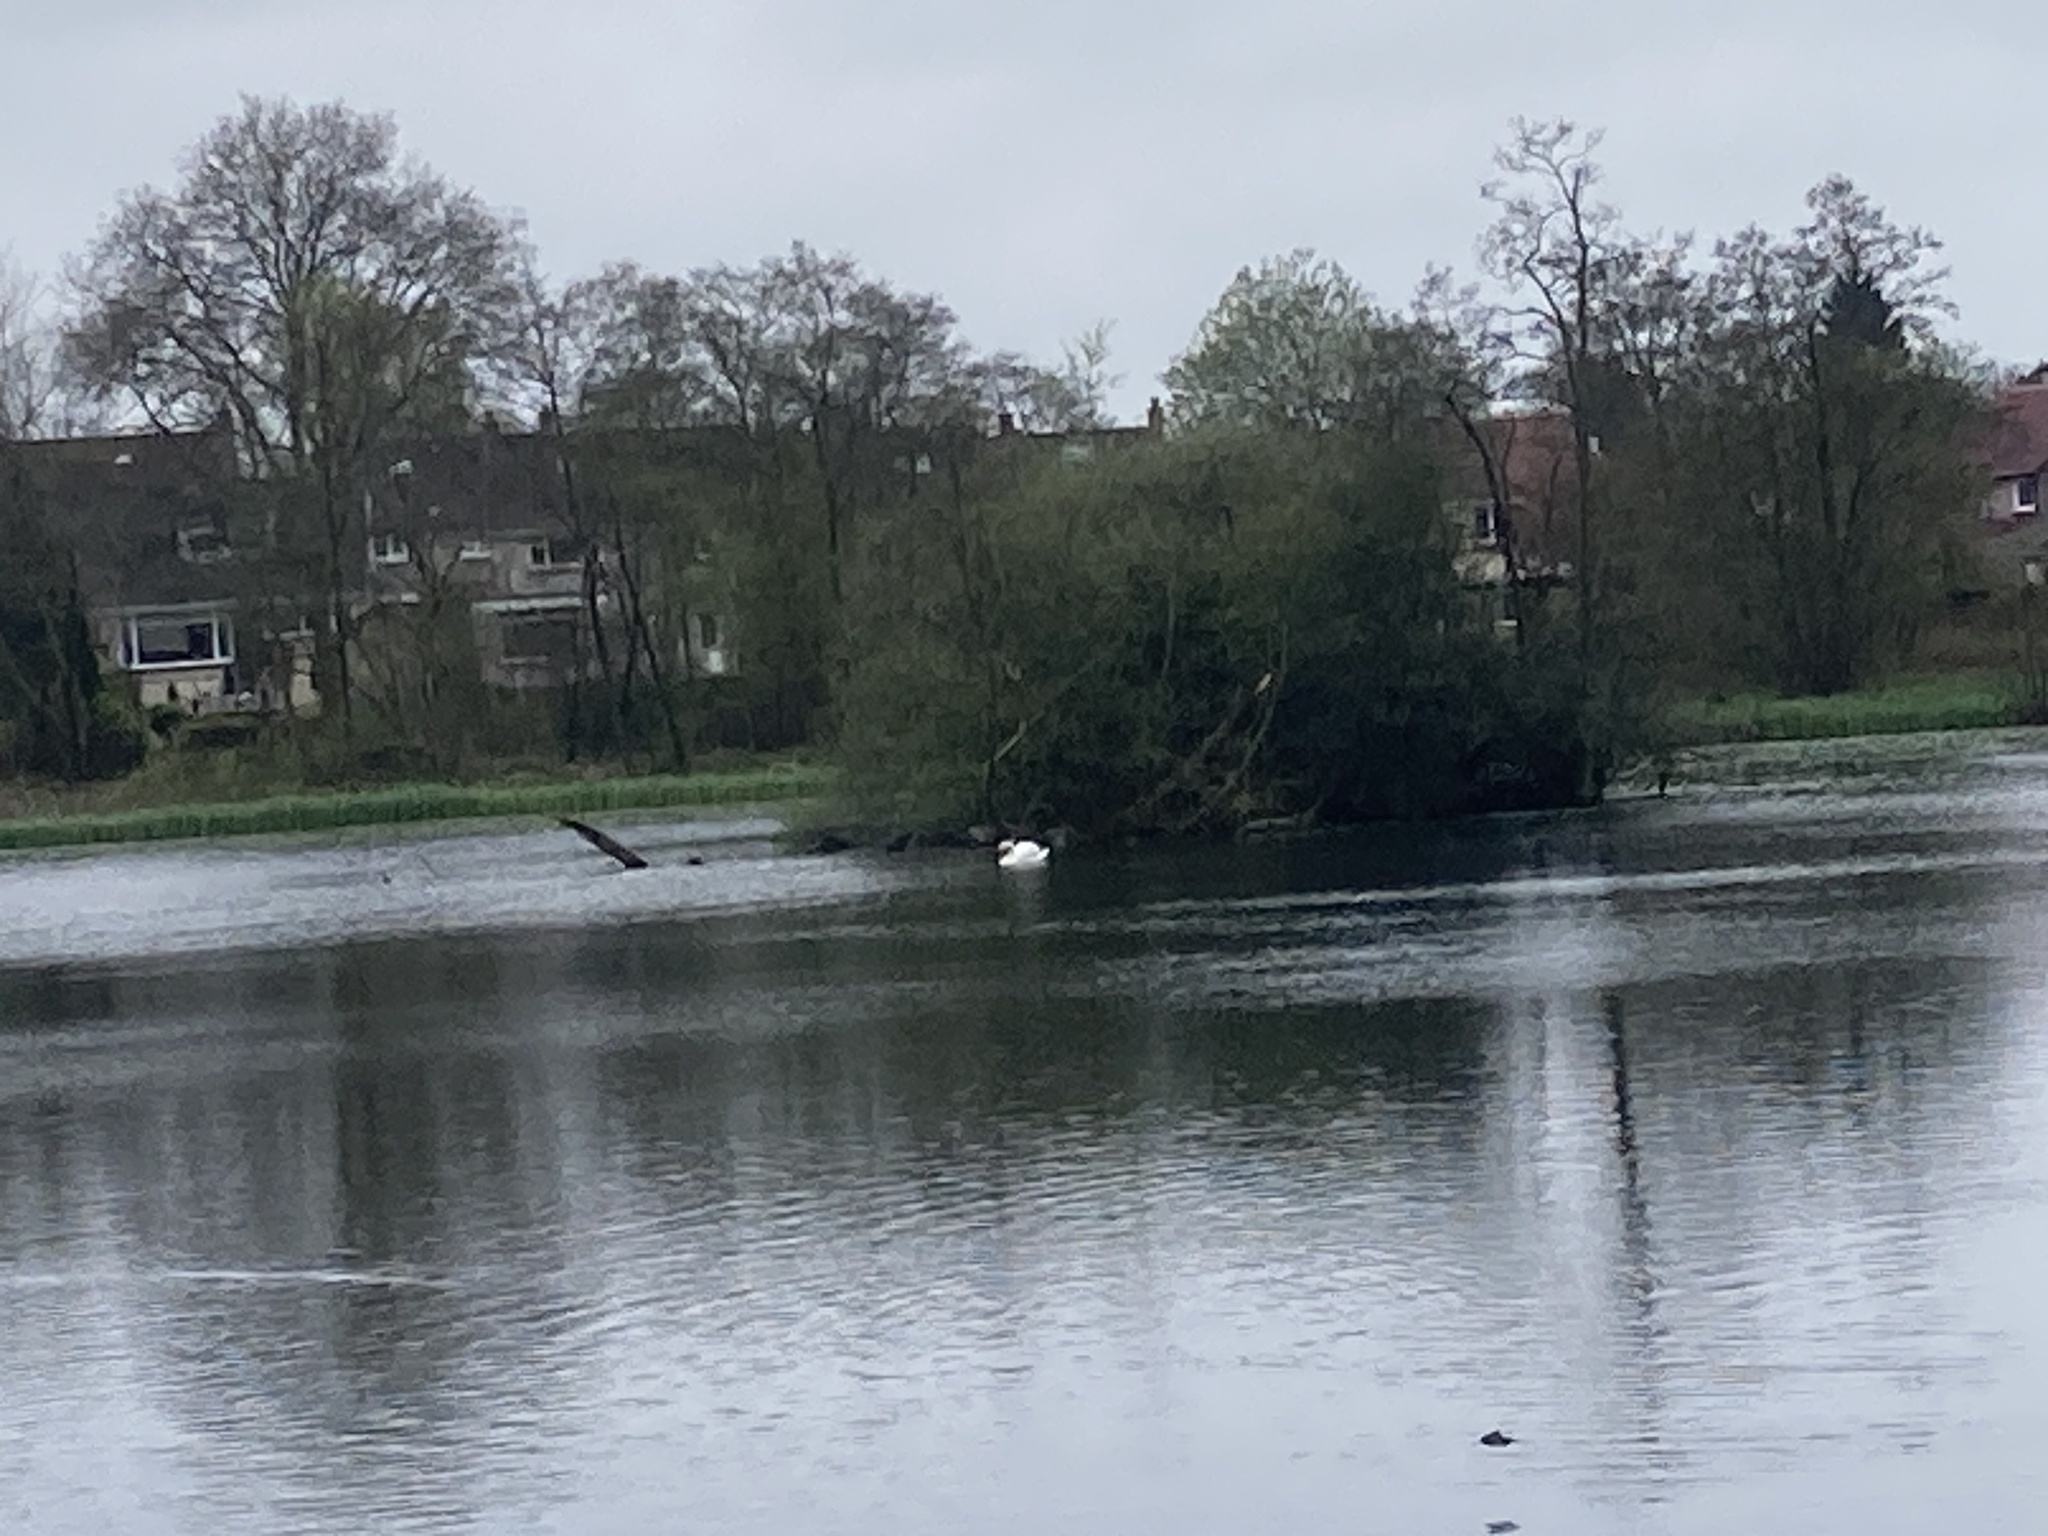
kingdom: Animalia
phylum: Chordata
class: Aves
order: Anseriformes
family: Anatidae
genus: Cygnus
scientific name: Cygnus olor
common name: Mute swan
